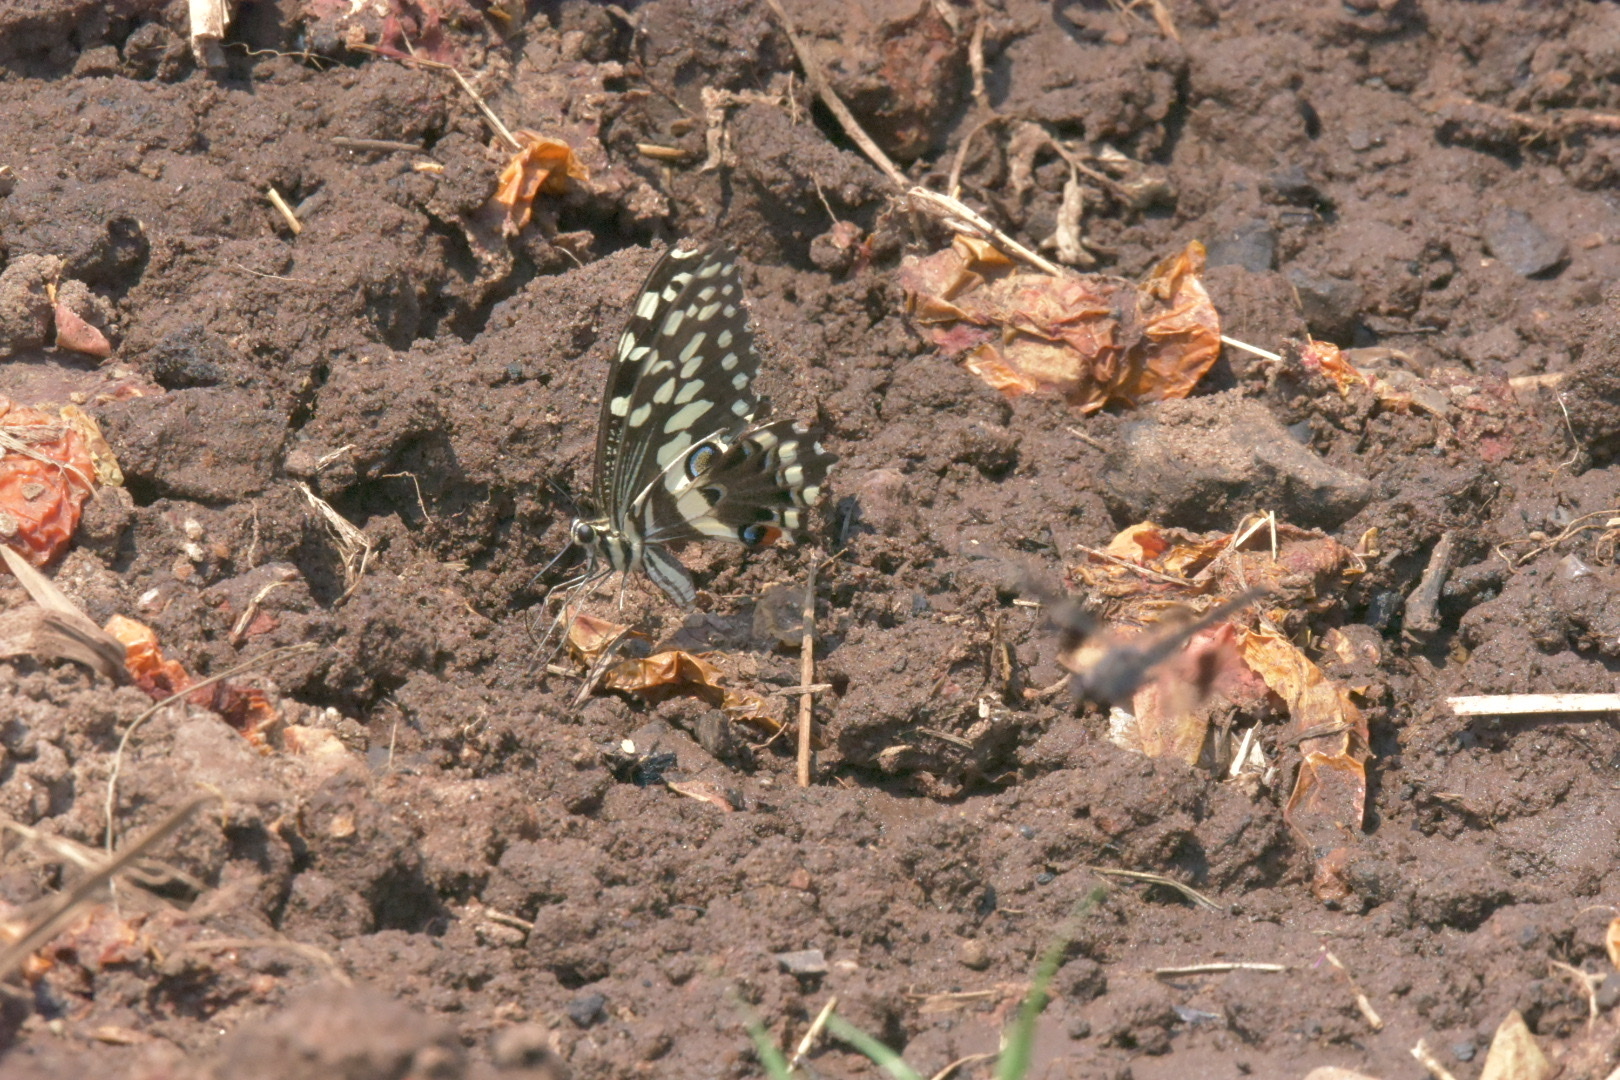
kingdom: Animalia
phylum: Arthropoda
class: Insecta
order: Lepidoptera
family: Papilionidae
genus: Papilio
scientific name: Papilio demodocus
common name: Christmas butterfly
